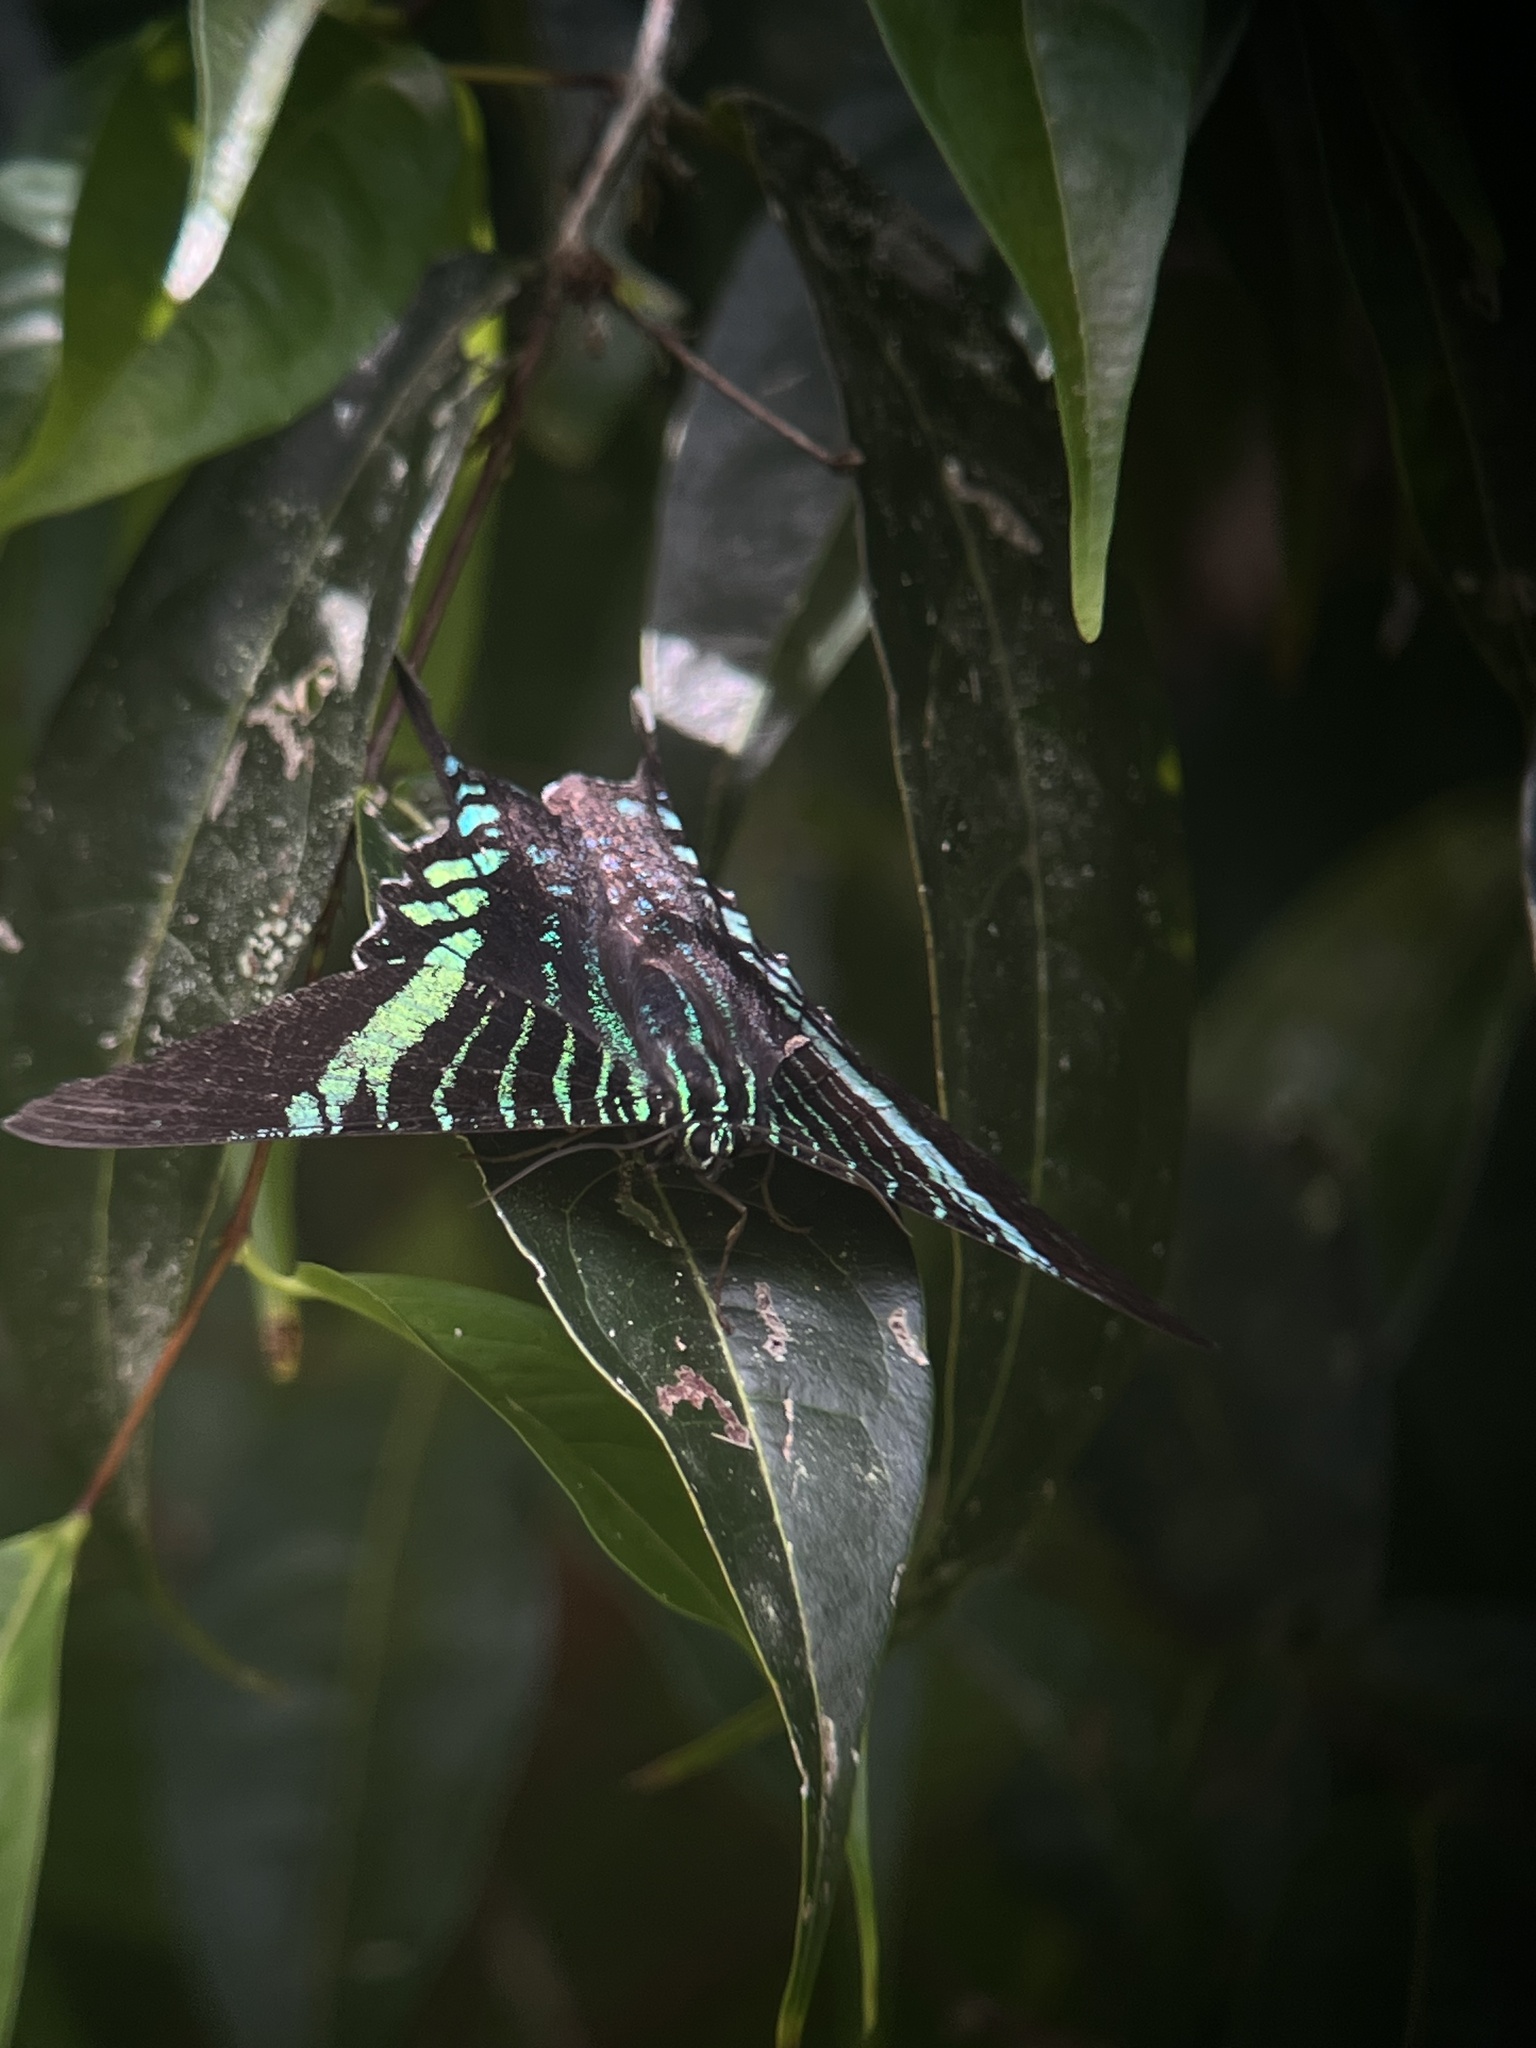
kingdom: Animalia
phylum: Arthropoda
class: Insecta
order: Lepidoptera
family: Uraniidae
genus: Urania
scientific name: Urania fulgens
